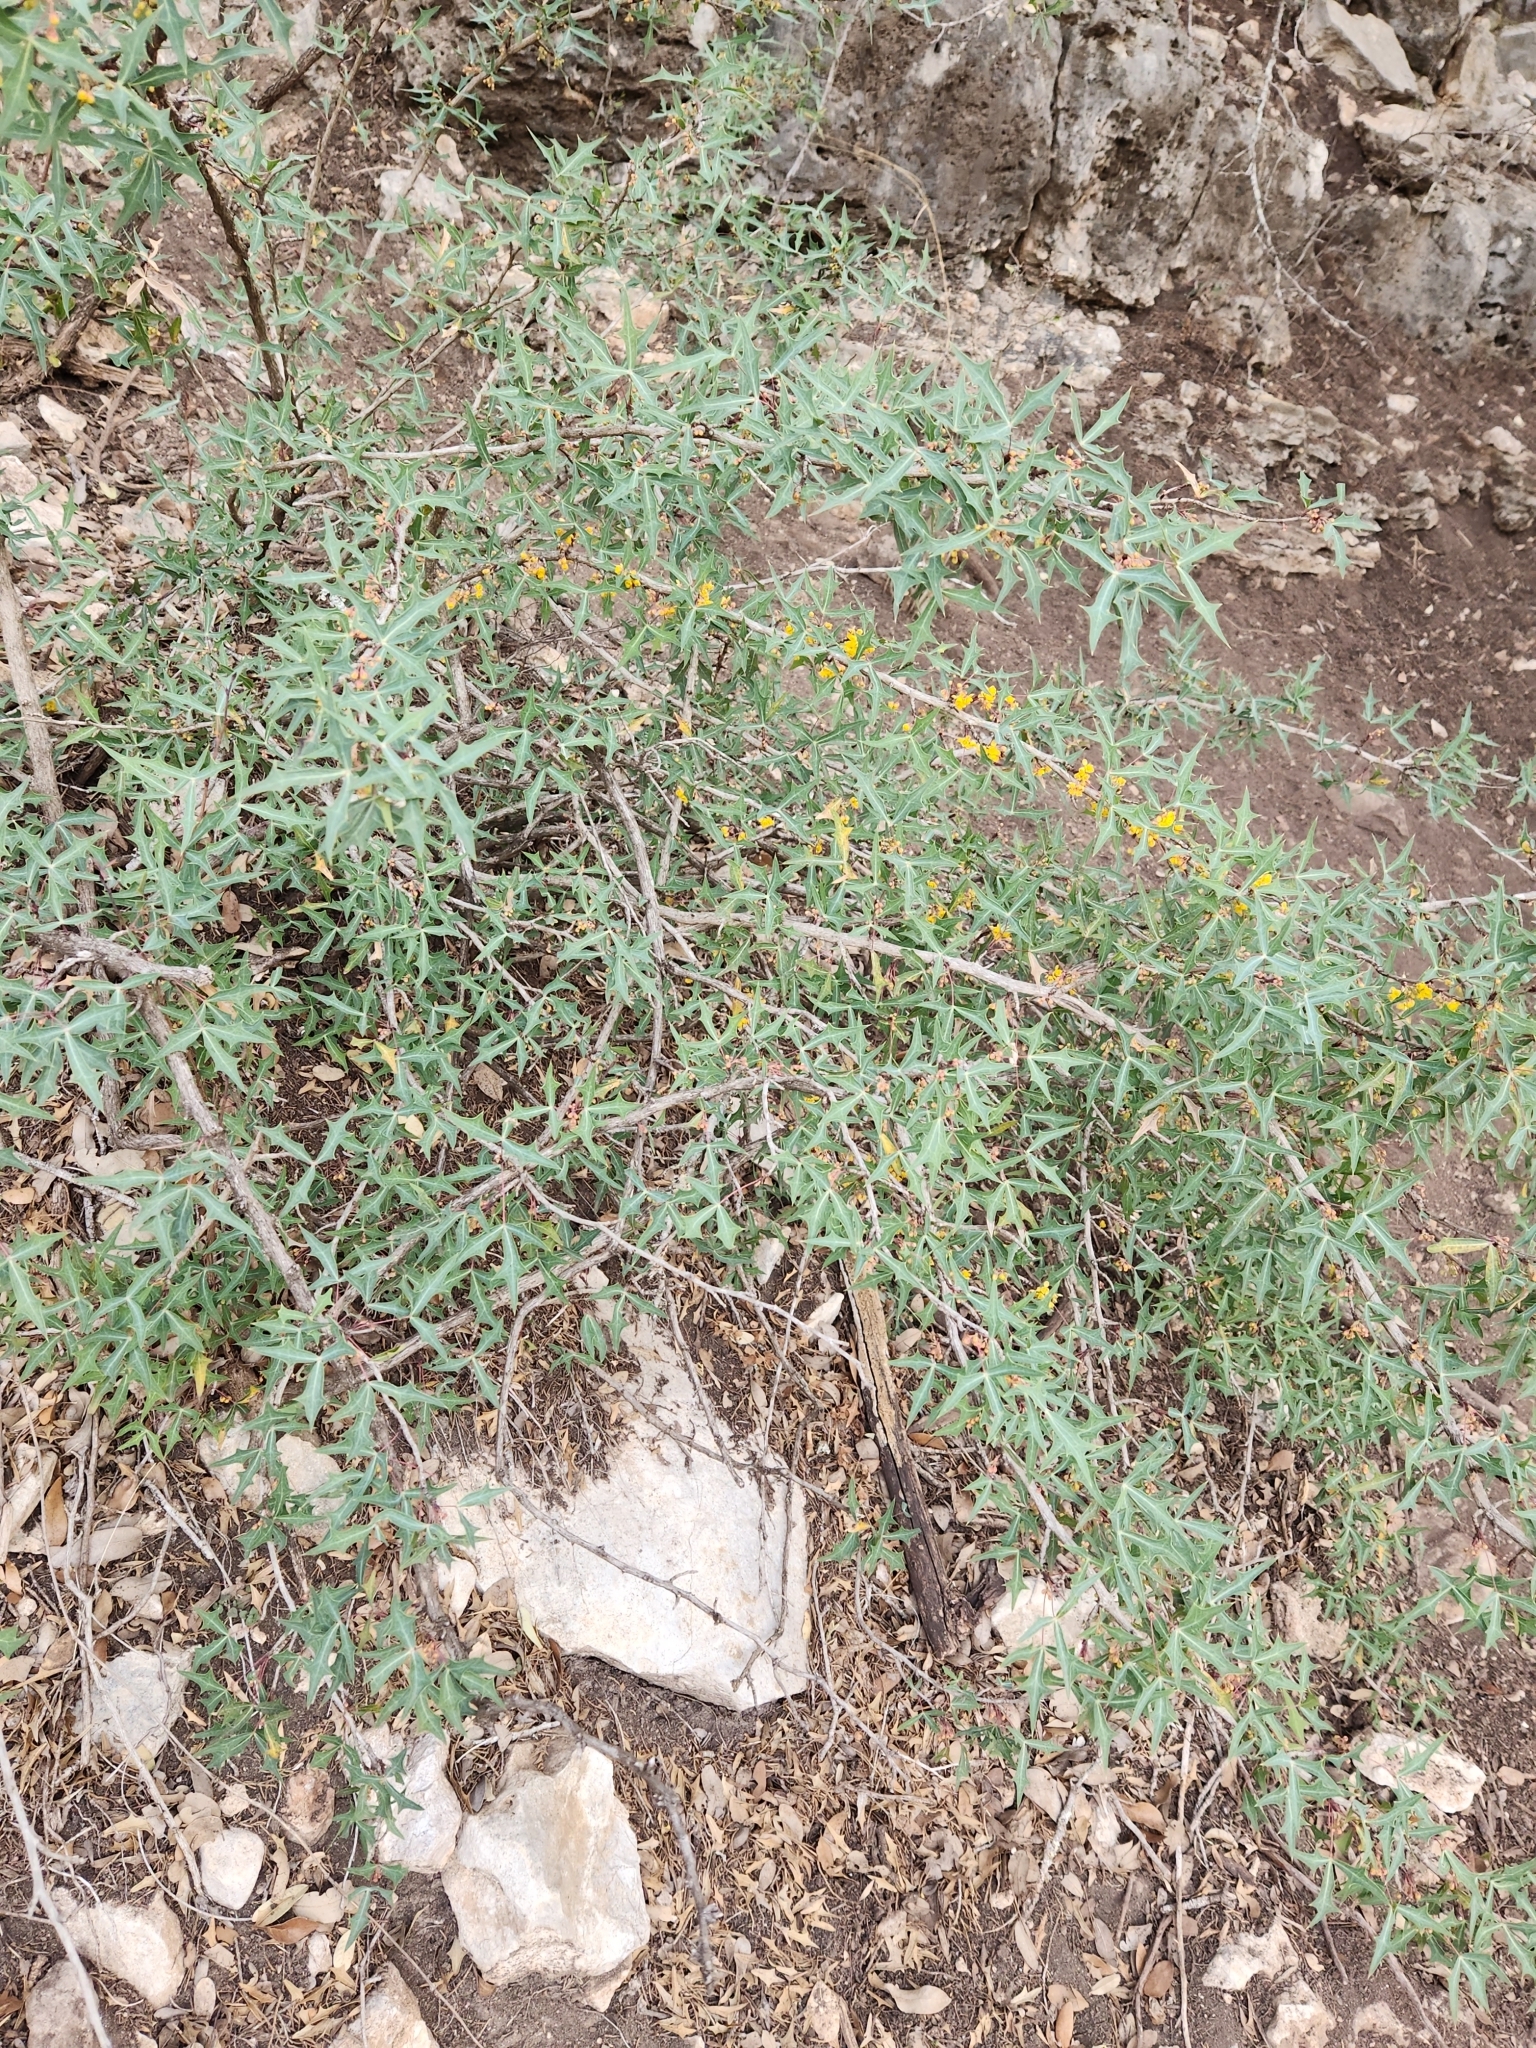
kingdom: Plantae
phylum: Tracheophyta
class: Magnoliopsida
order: Ranunculales
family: Berberidaceae
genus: Alloberberis
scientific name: Alloberberis trifoliolata
